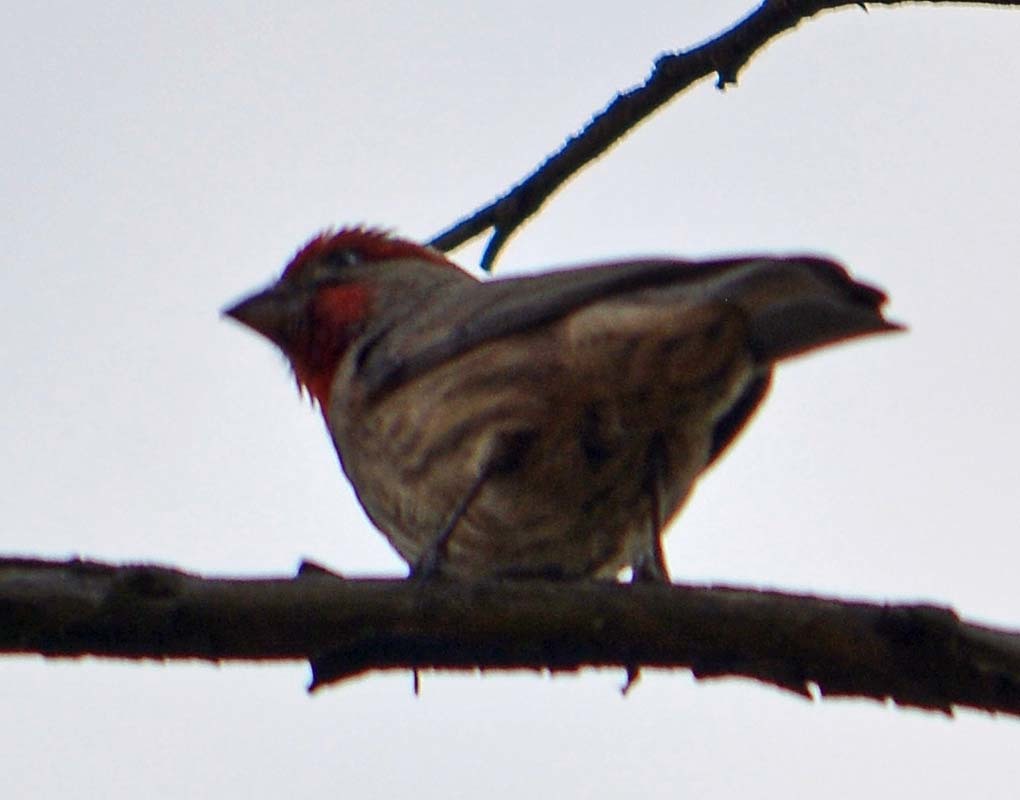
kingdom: Animalia
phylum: Chordata
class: Aves
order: Passeriformes
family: Fringillidae
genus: Haemorhous
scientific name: Haemorhous mexicanus
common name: House finch
